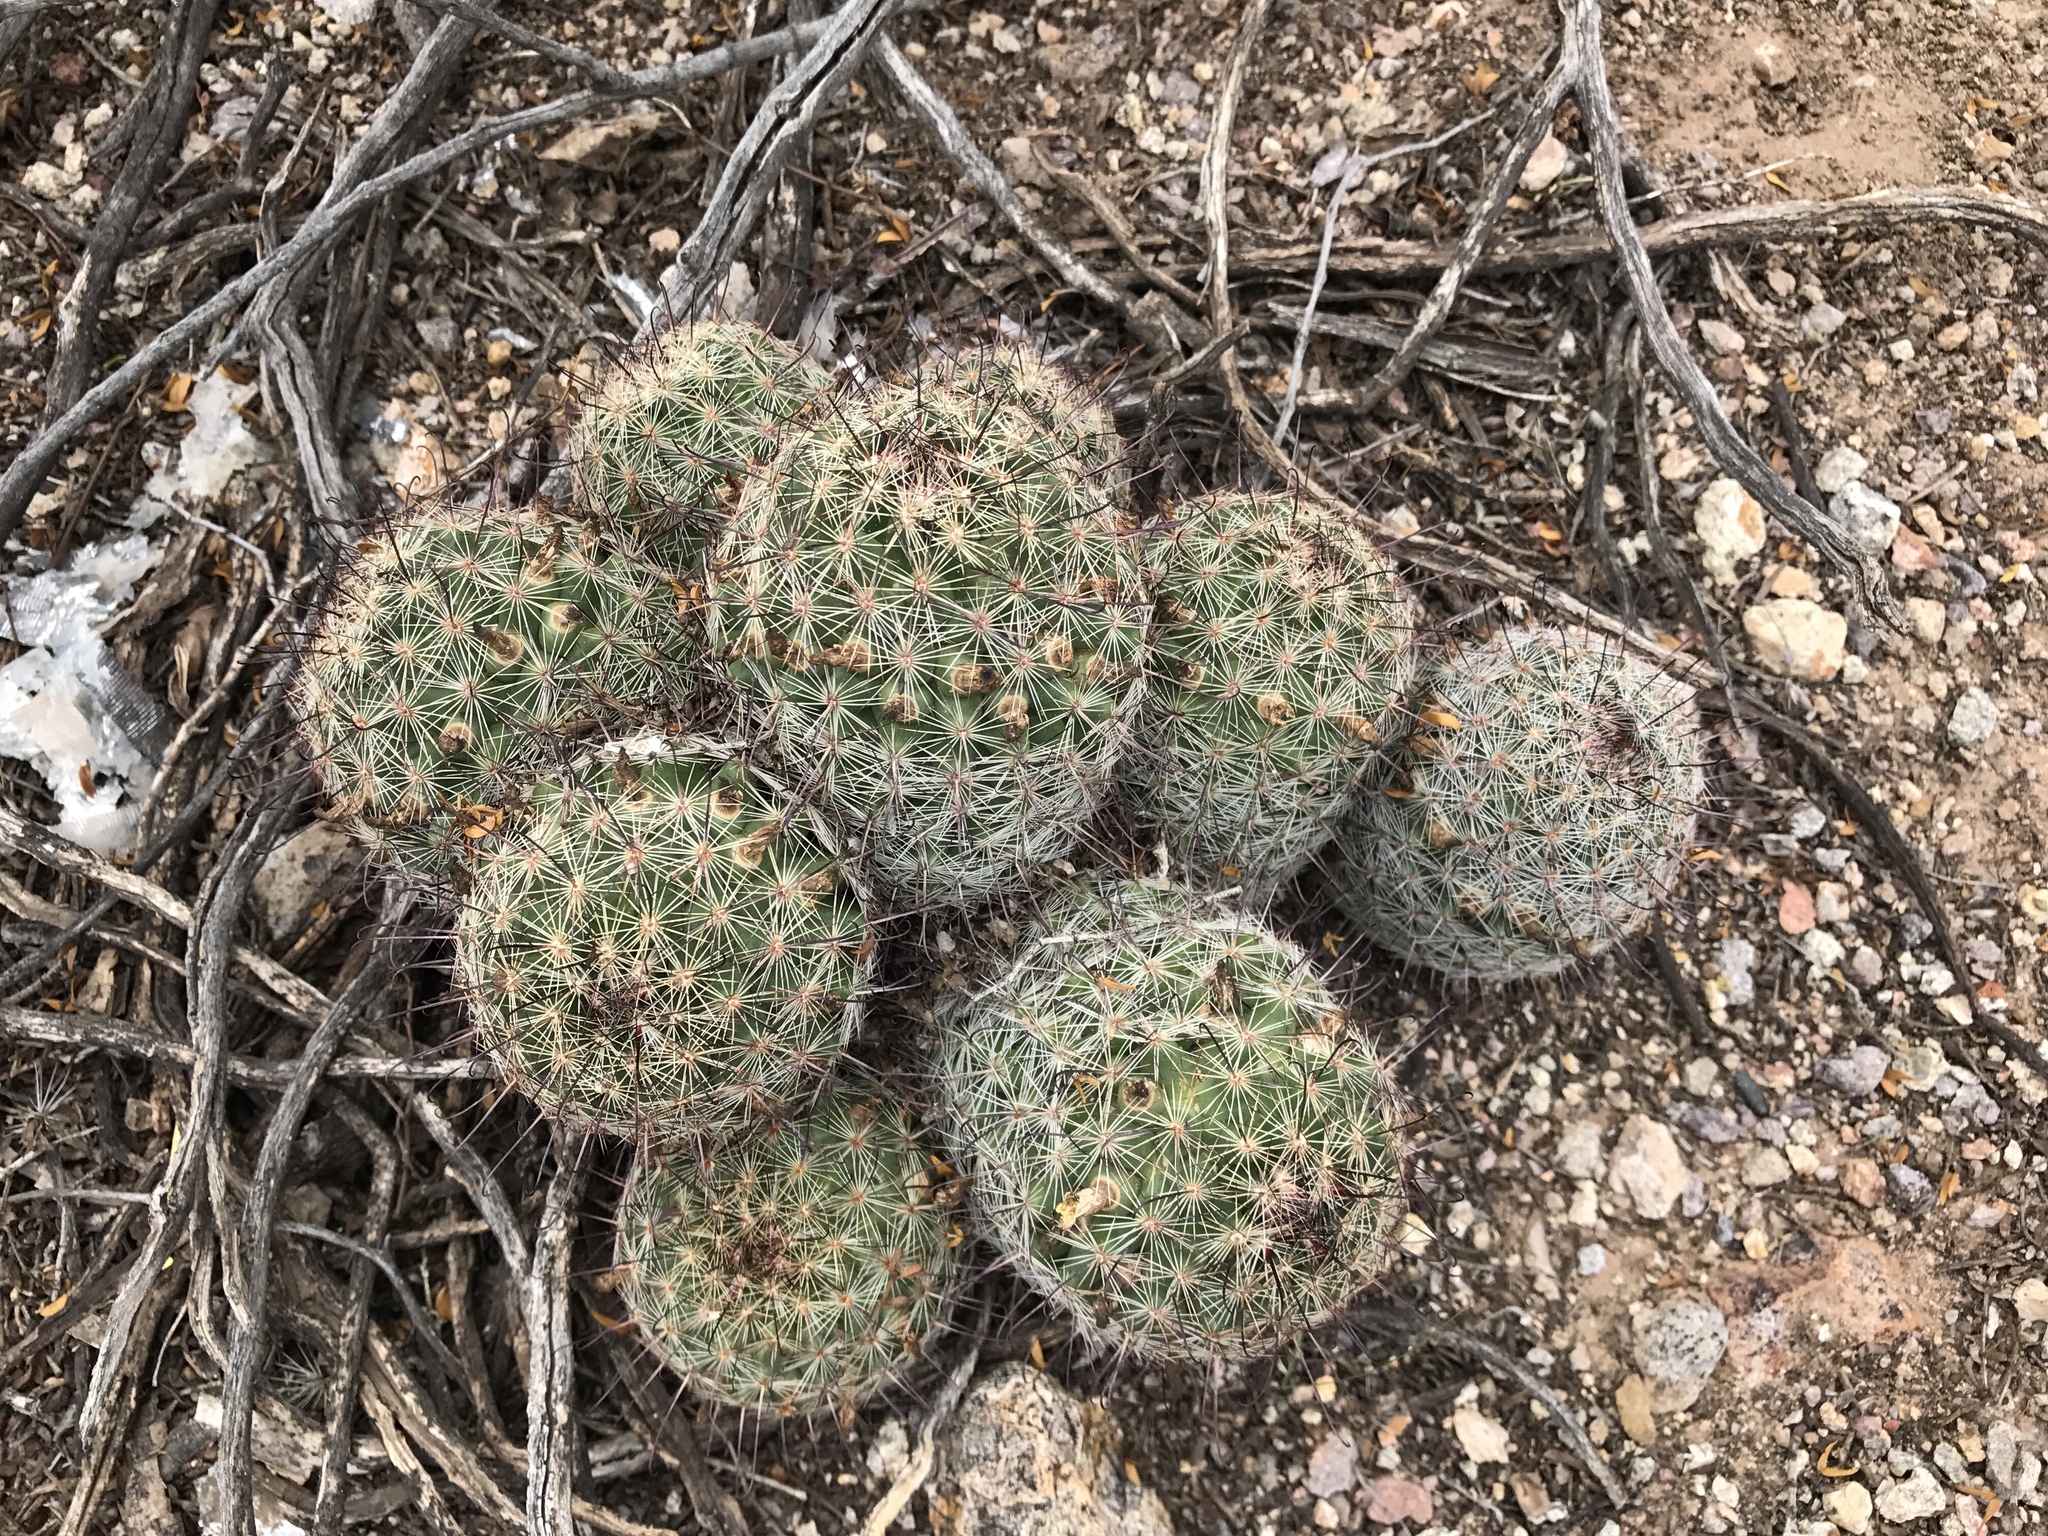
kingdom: Plantae
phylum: Tracheophyta
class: Magnoliopsida
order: Caryophyllales
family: Cactaceae
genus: Cochemiea
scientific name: Cochemiea grahamii
